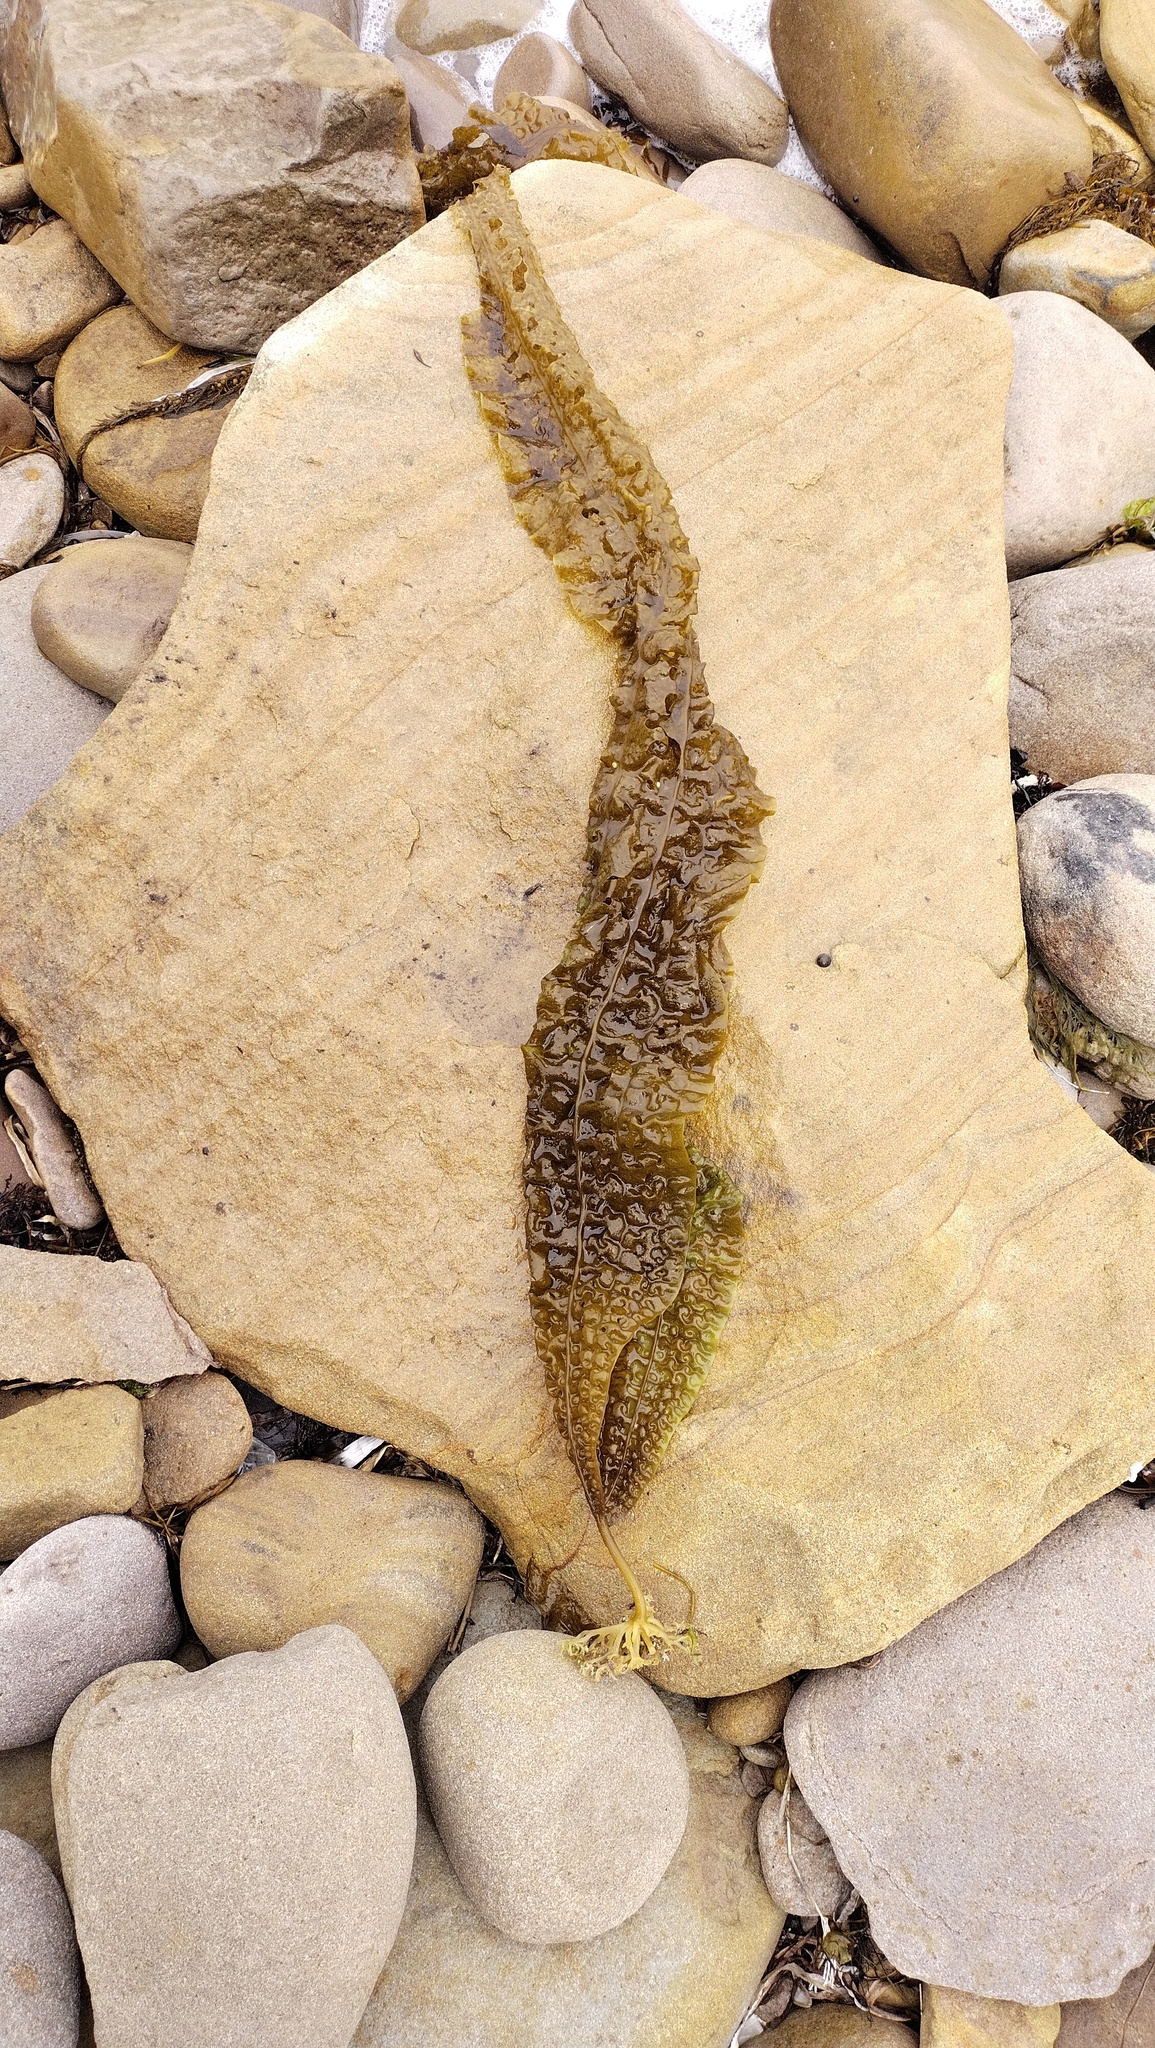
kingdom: Chromista
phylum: Ochrophyta
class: Phaeophyceae
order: Laminariales
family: Costariaceae
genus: Costaria
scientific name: Costaria costata
